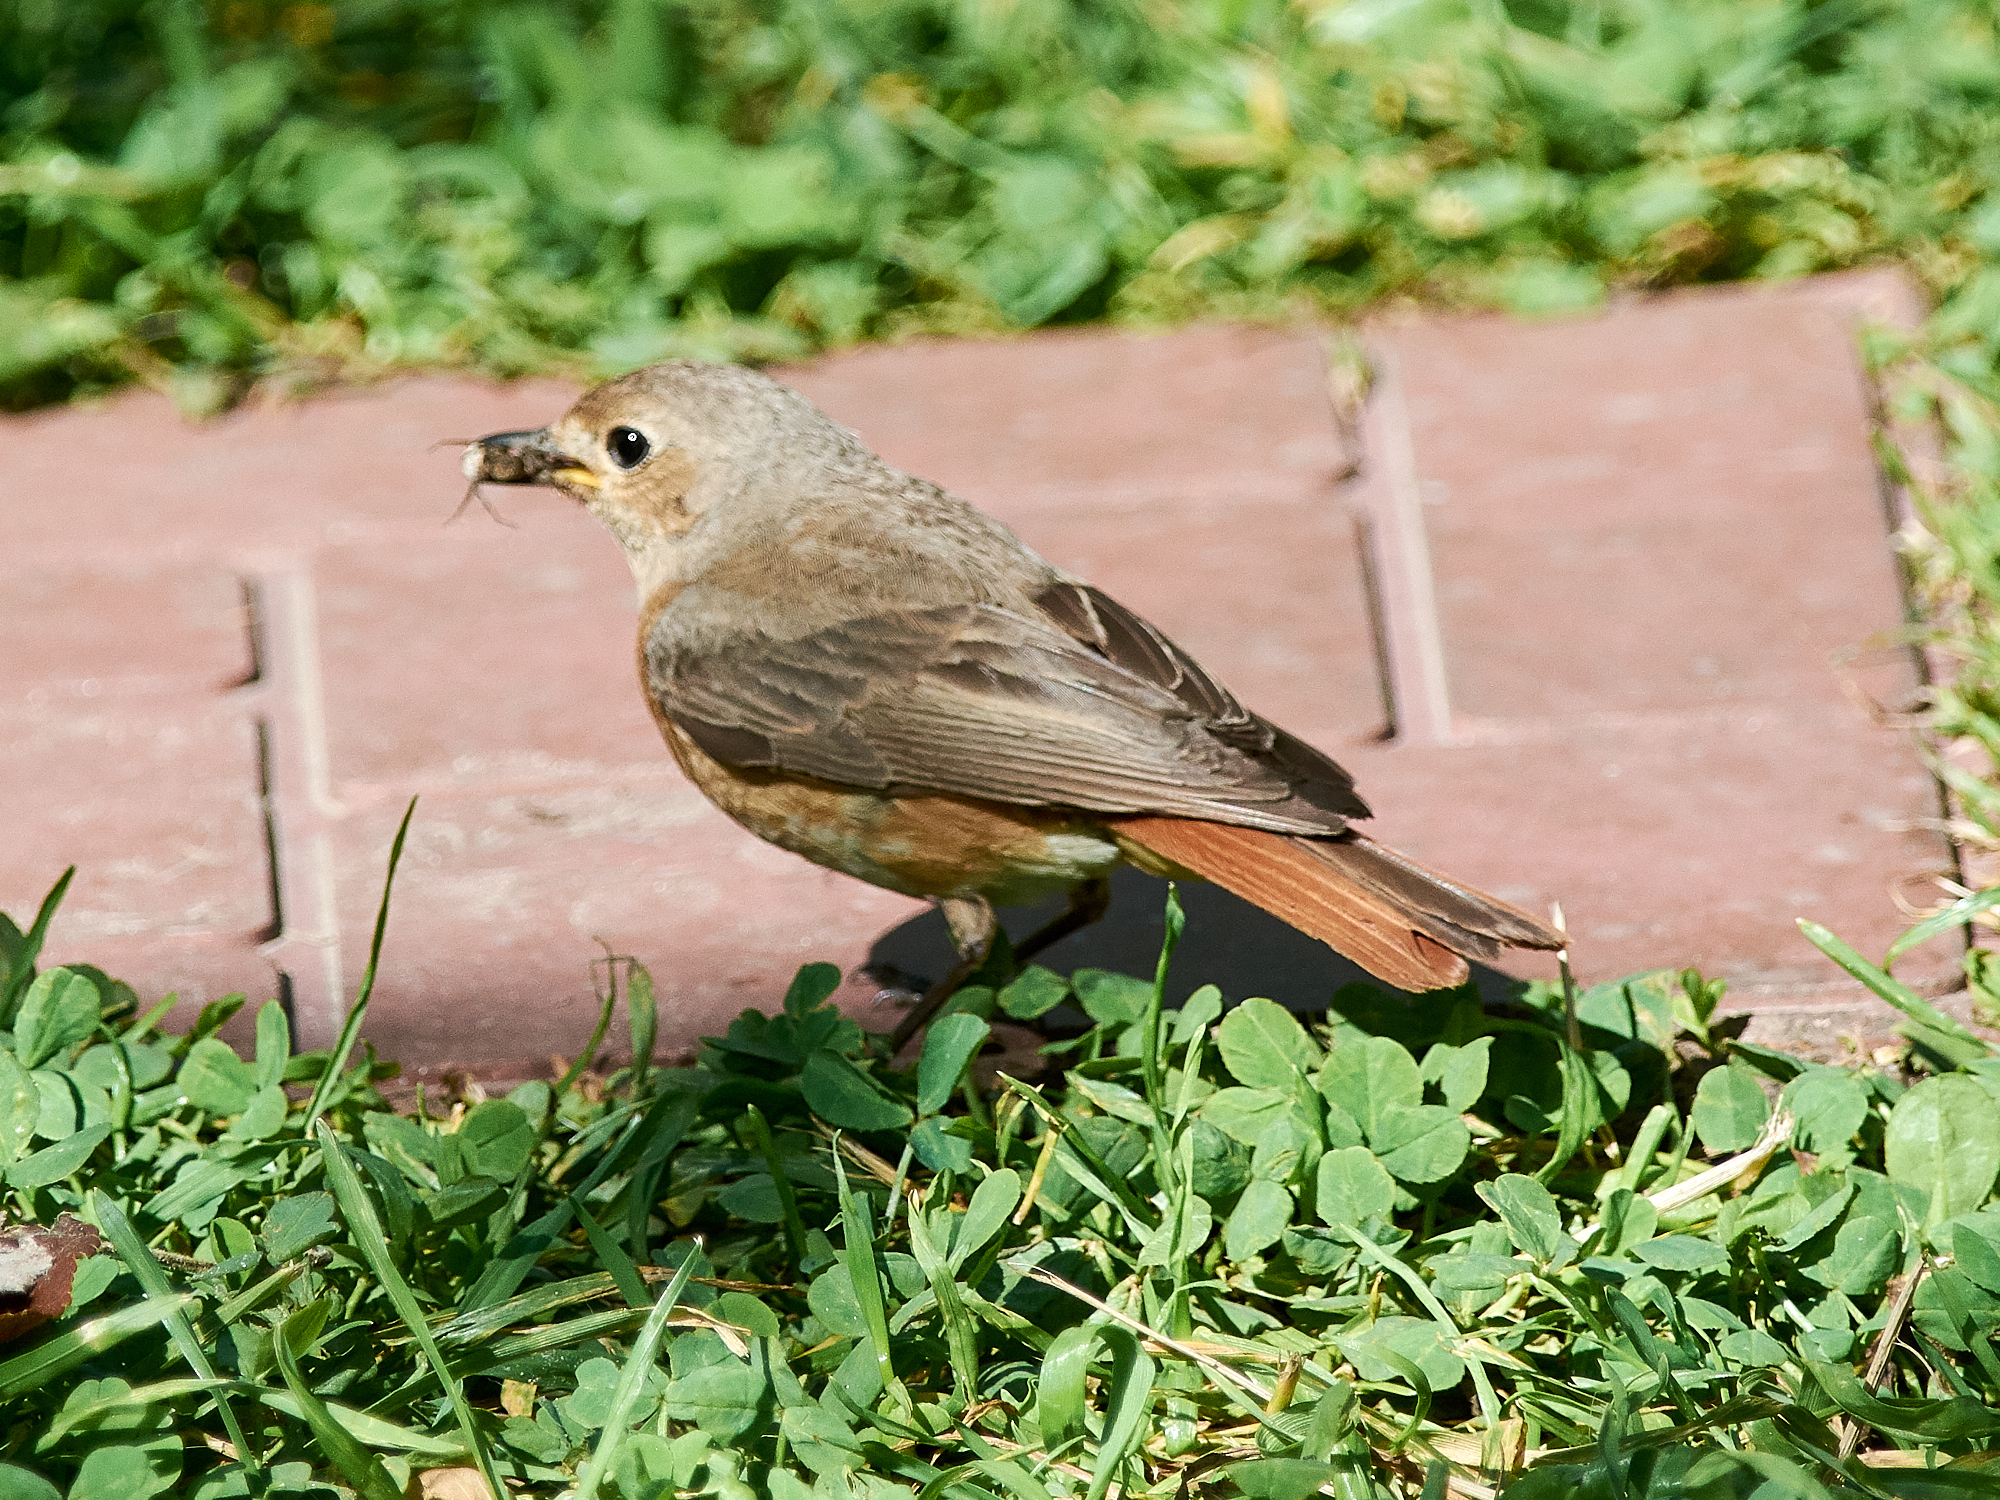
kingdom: Animalia
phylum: Chordata
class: Aves
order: Passeriformes
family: Muscicapidae
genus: Phoenicurus
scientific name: Phoenicurus phoenicurus
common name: Common redstart
